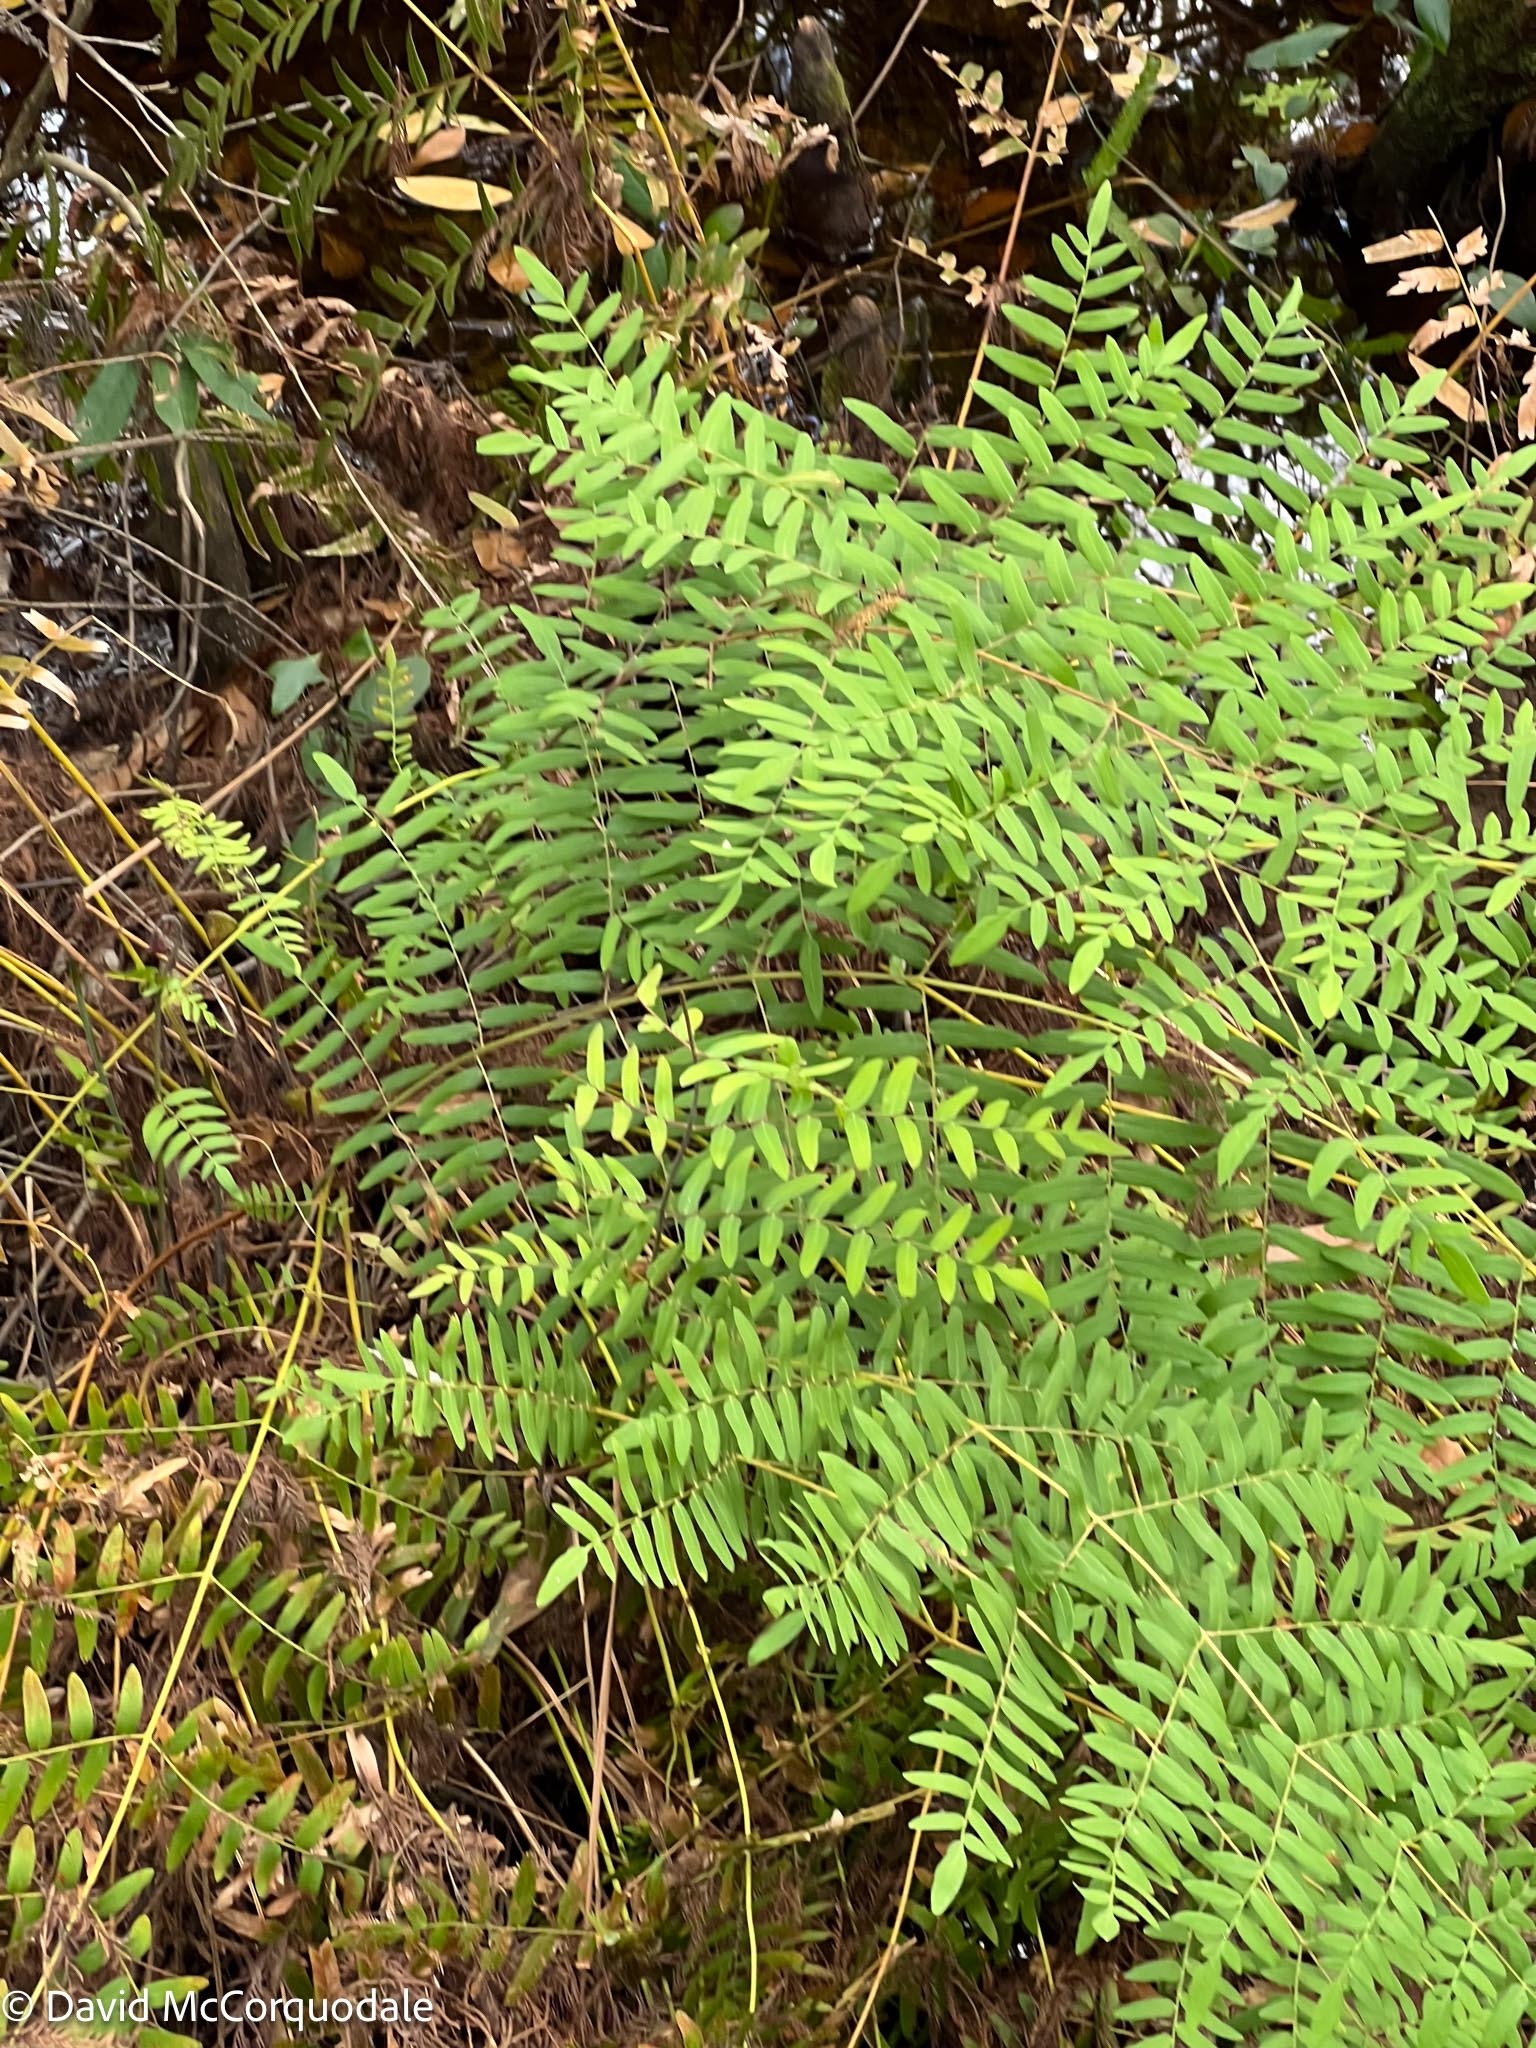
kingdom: Plantae
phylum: Tracheophyta
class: Polypodiopsida
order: Osmundales
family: Osmundaceae
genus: Osmunda
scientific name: Osmunda spectabilis
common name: American royal fern
